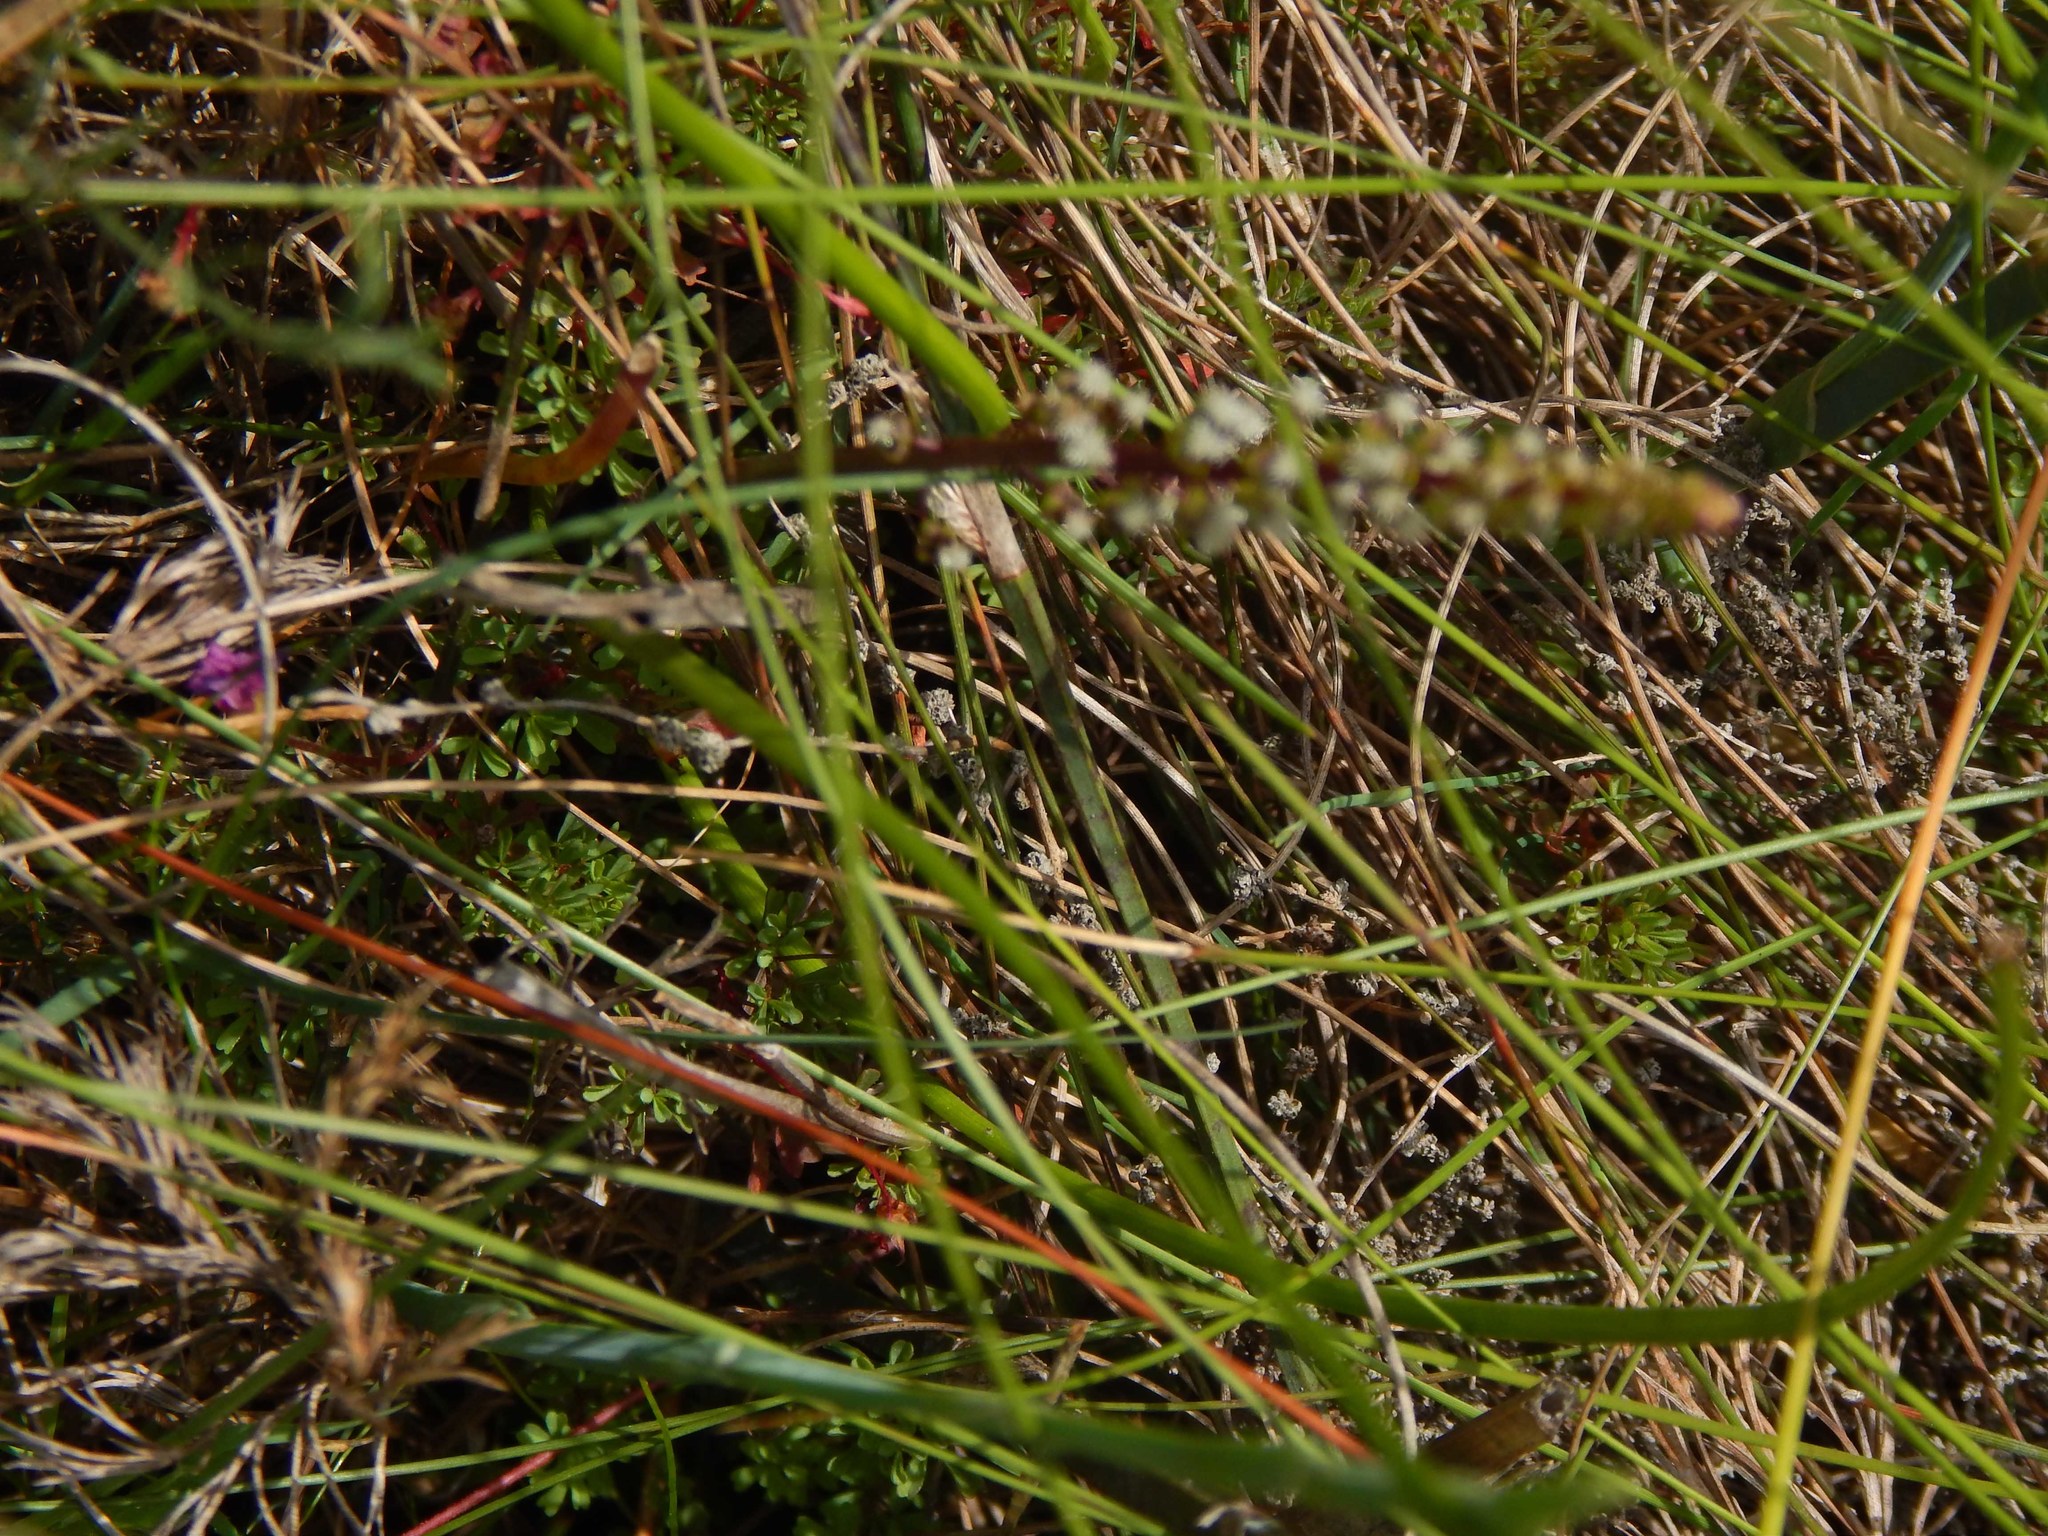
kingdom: Plantae
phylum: Tracheophyta
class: Liliopsida
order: Alismatales
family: Juncaginaceae
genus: Triglochin
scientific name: Triglochin bulbosa
